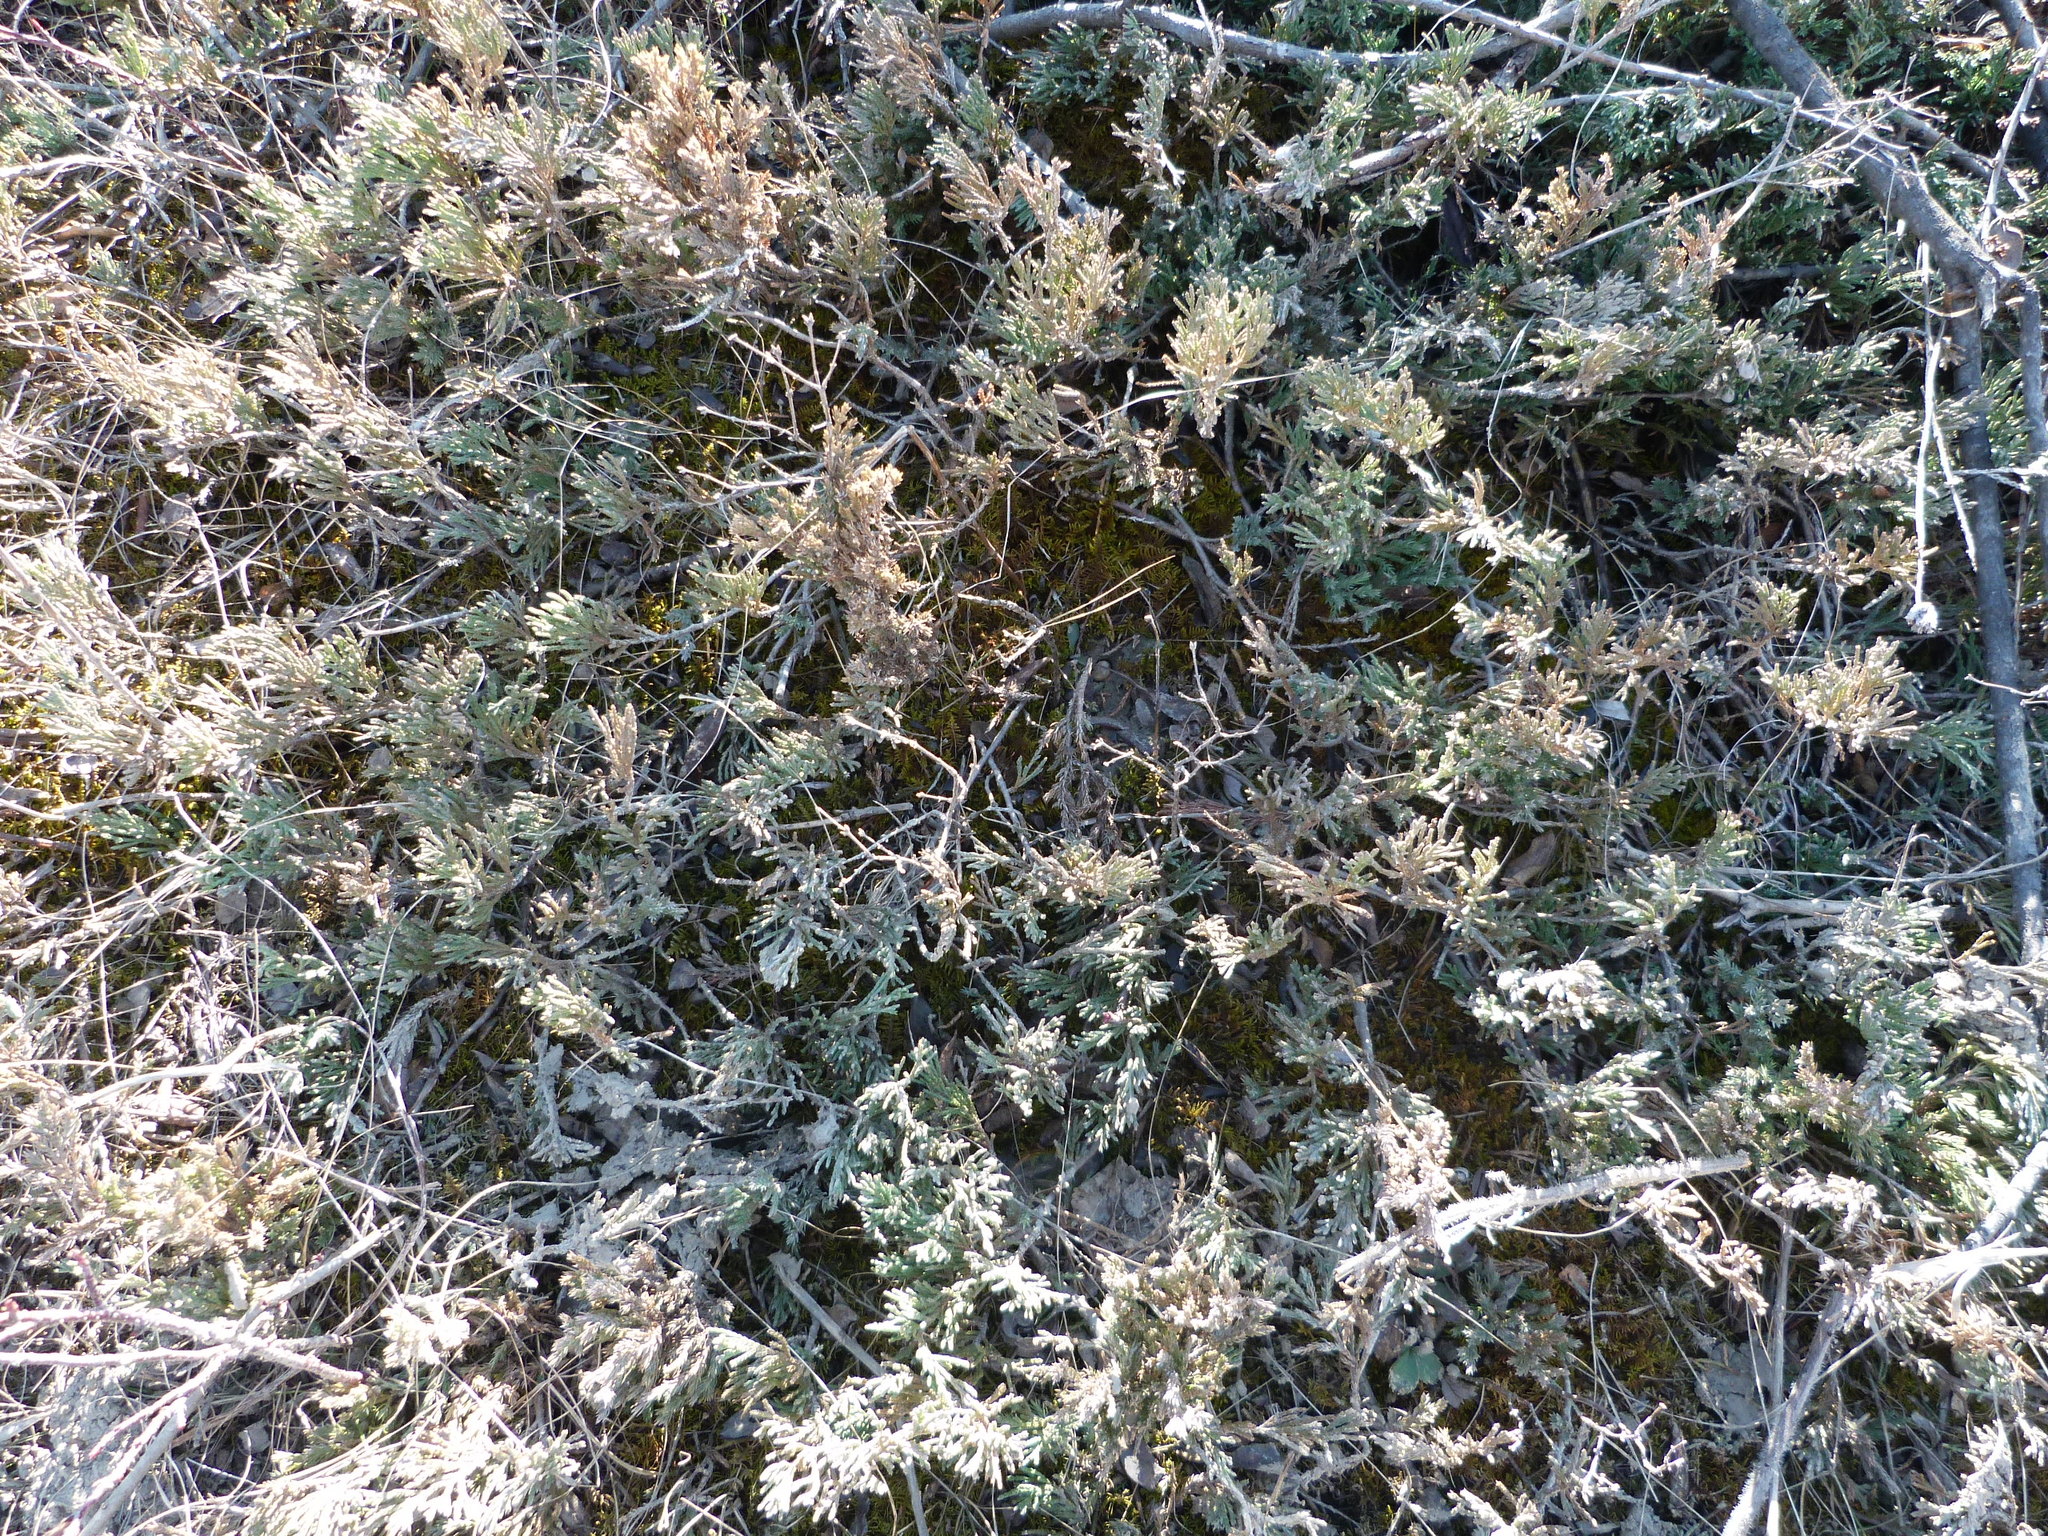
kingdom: Plantae
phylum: Tracheophyta
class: Pinopsida
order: Pinales
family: Cupressaceae
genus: Juniperus
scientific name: Juniperus horizontalis
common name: Creeping juniper
